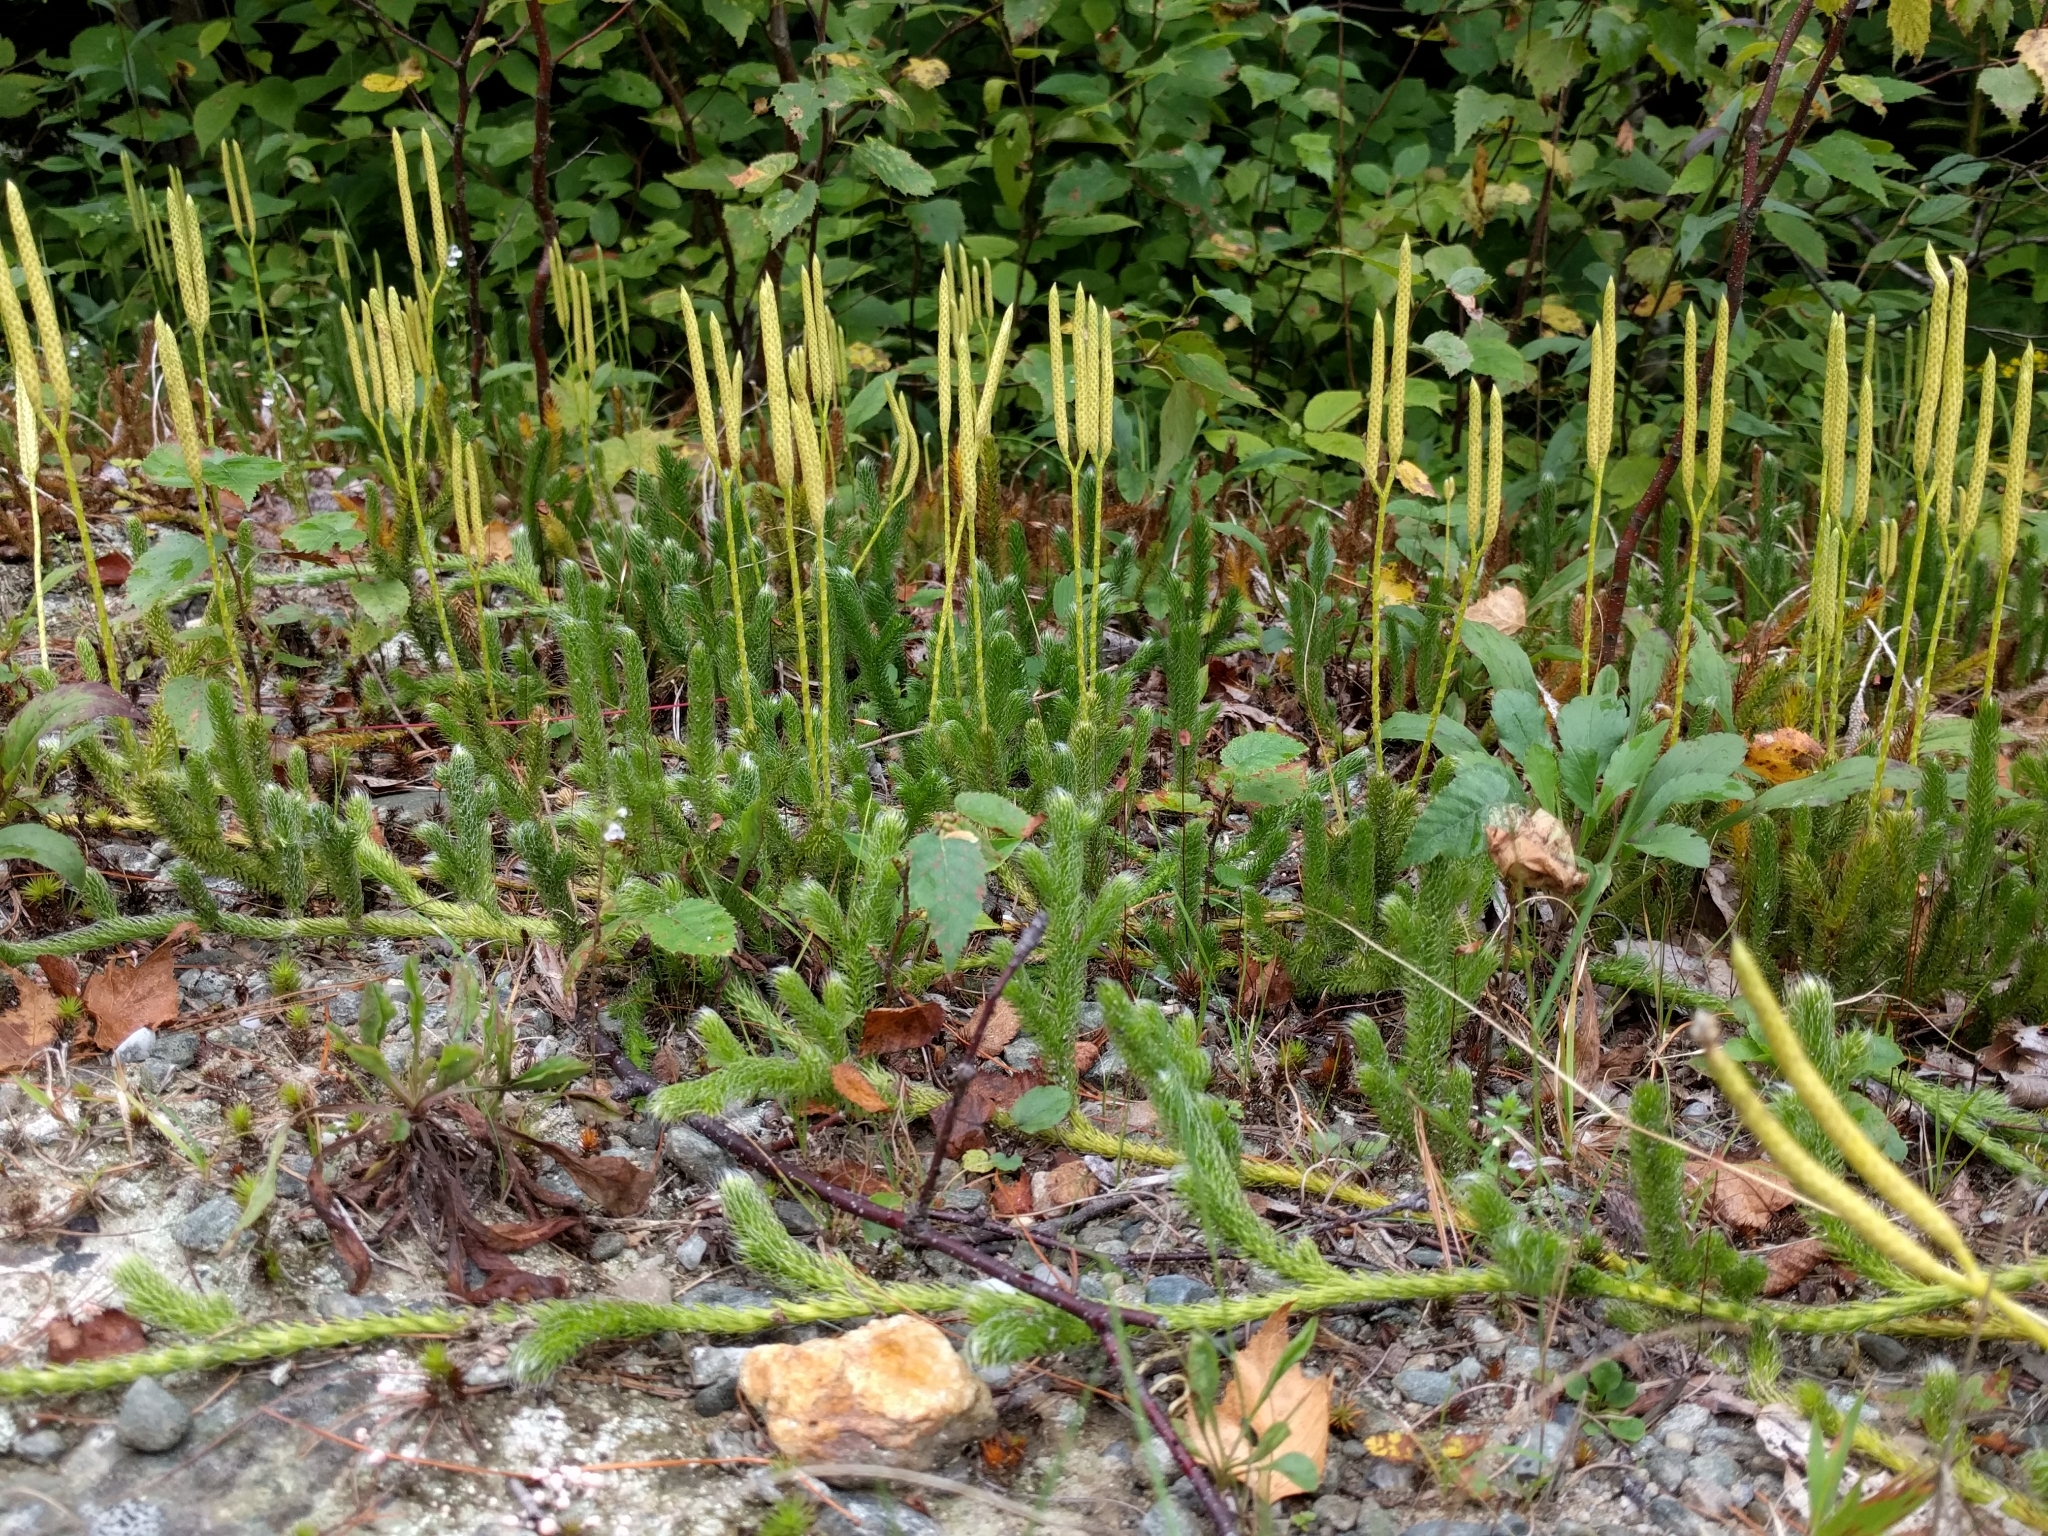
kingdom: Plantae
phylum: Tracheophyta
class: Lycopodiopsida
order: Lycopodiales
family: Lycopodiaceae
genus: Lycopodium
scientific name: Lycopodium clavatum
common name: Stag's-horn clubmoss
